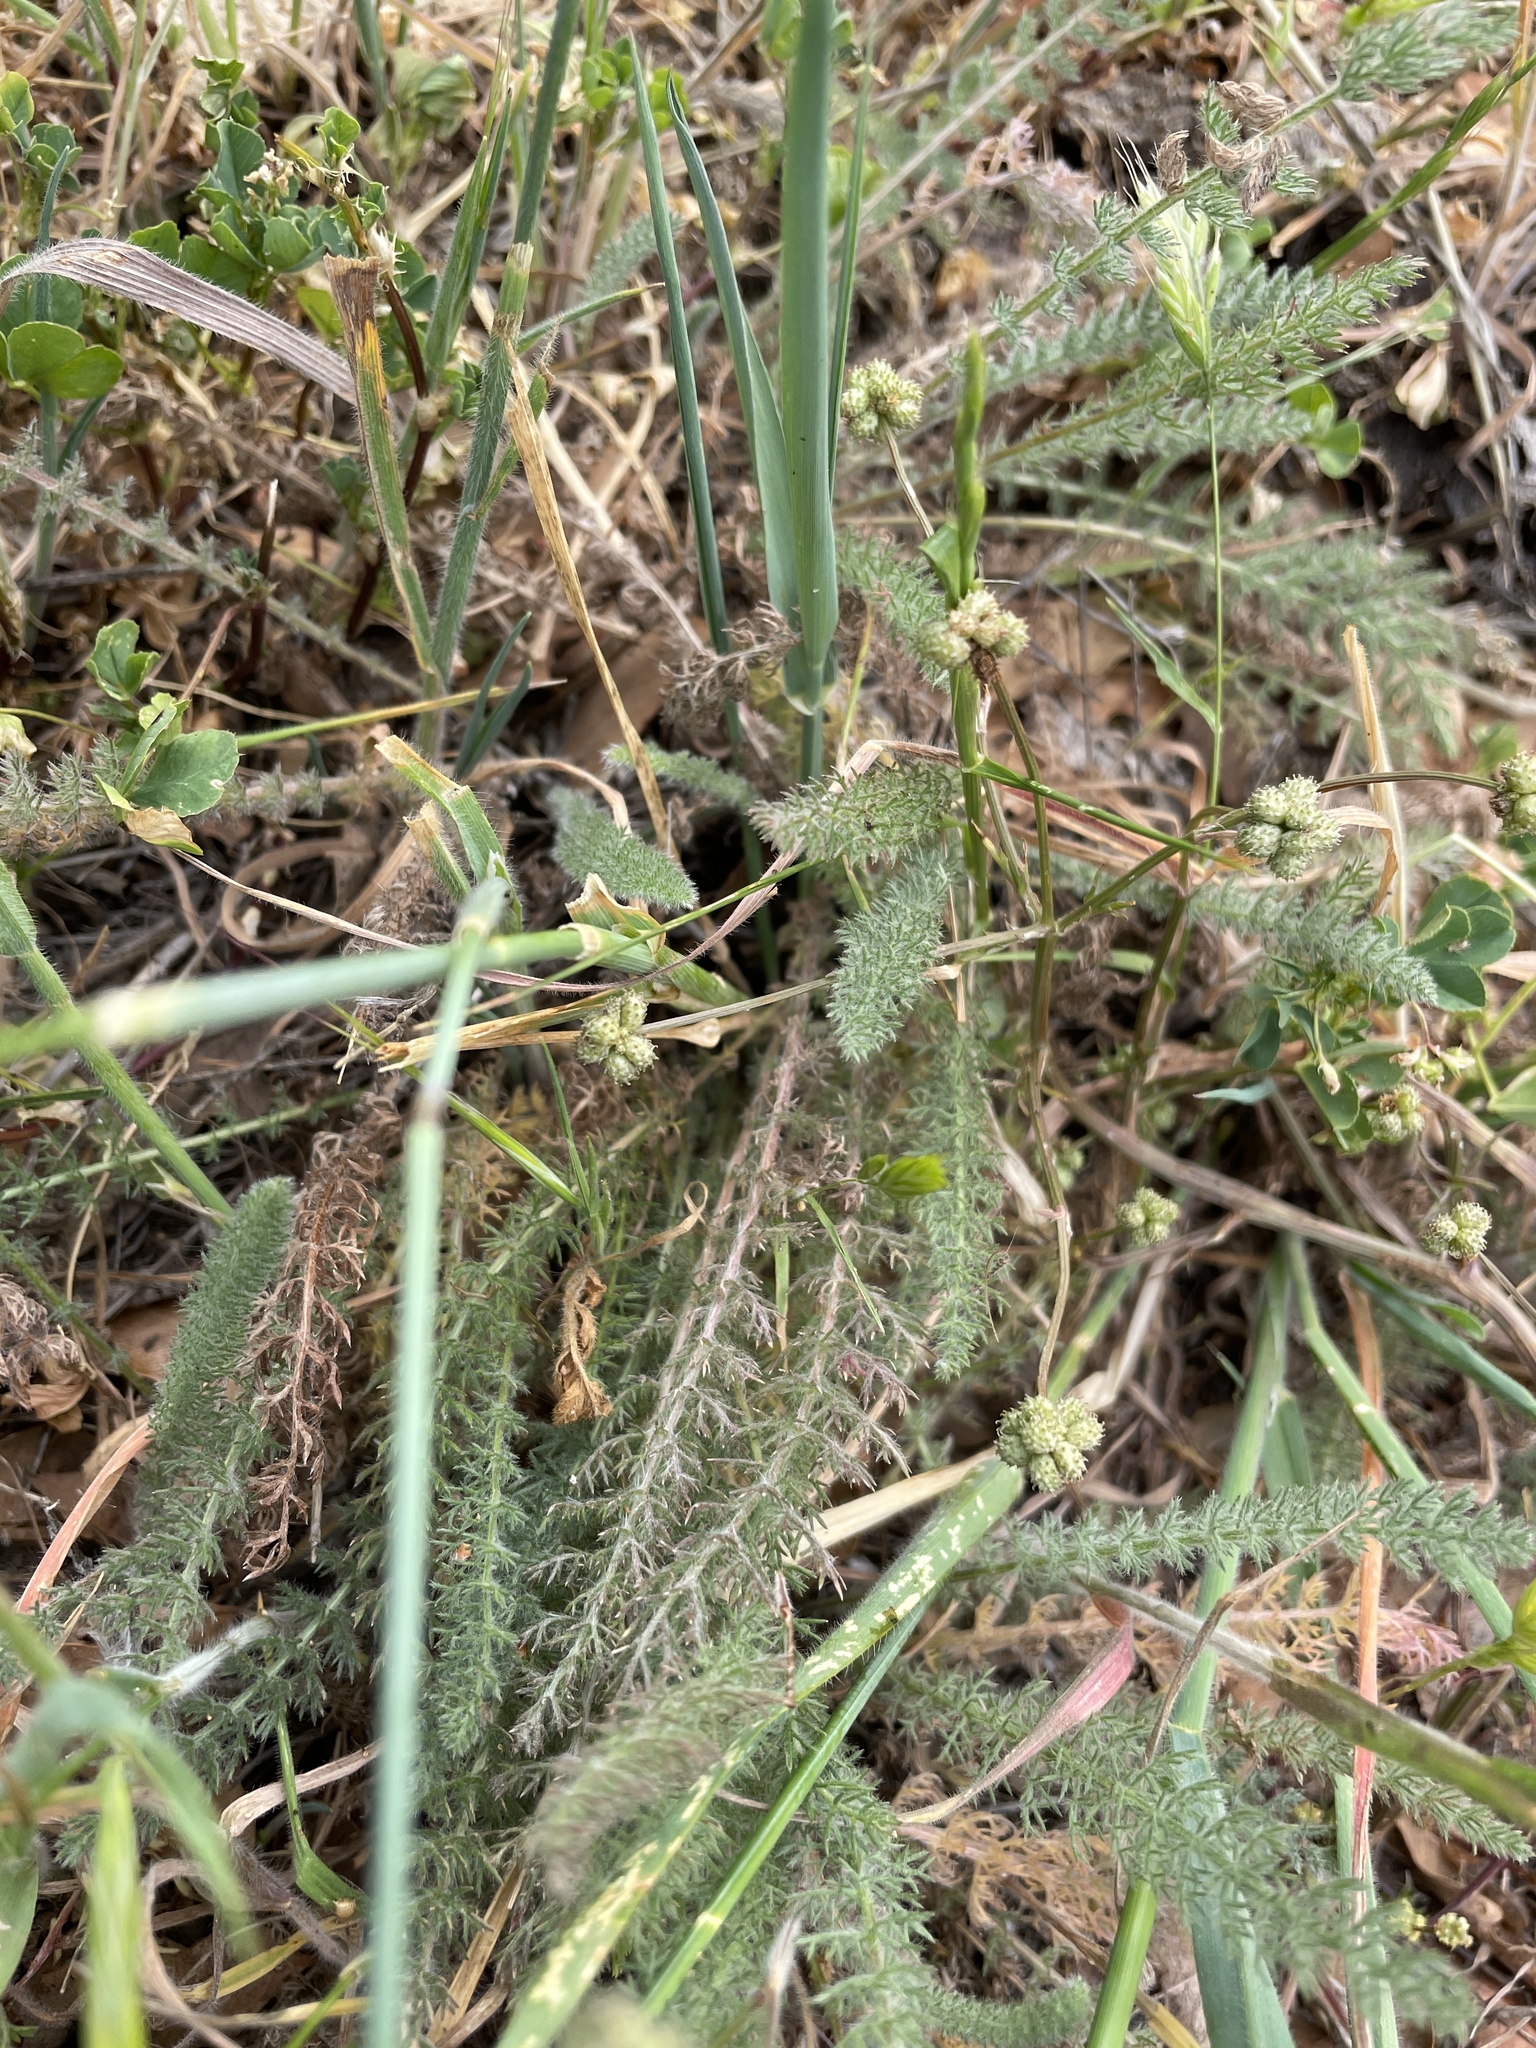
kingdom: Plantae
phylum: Tracheophyta
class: Magnoliopsida
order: Asterales
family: Asteraceae
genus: Achillea
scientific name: Achillea millefolium
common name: Yarrow
